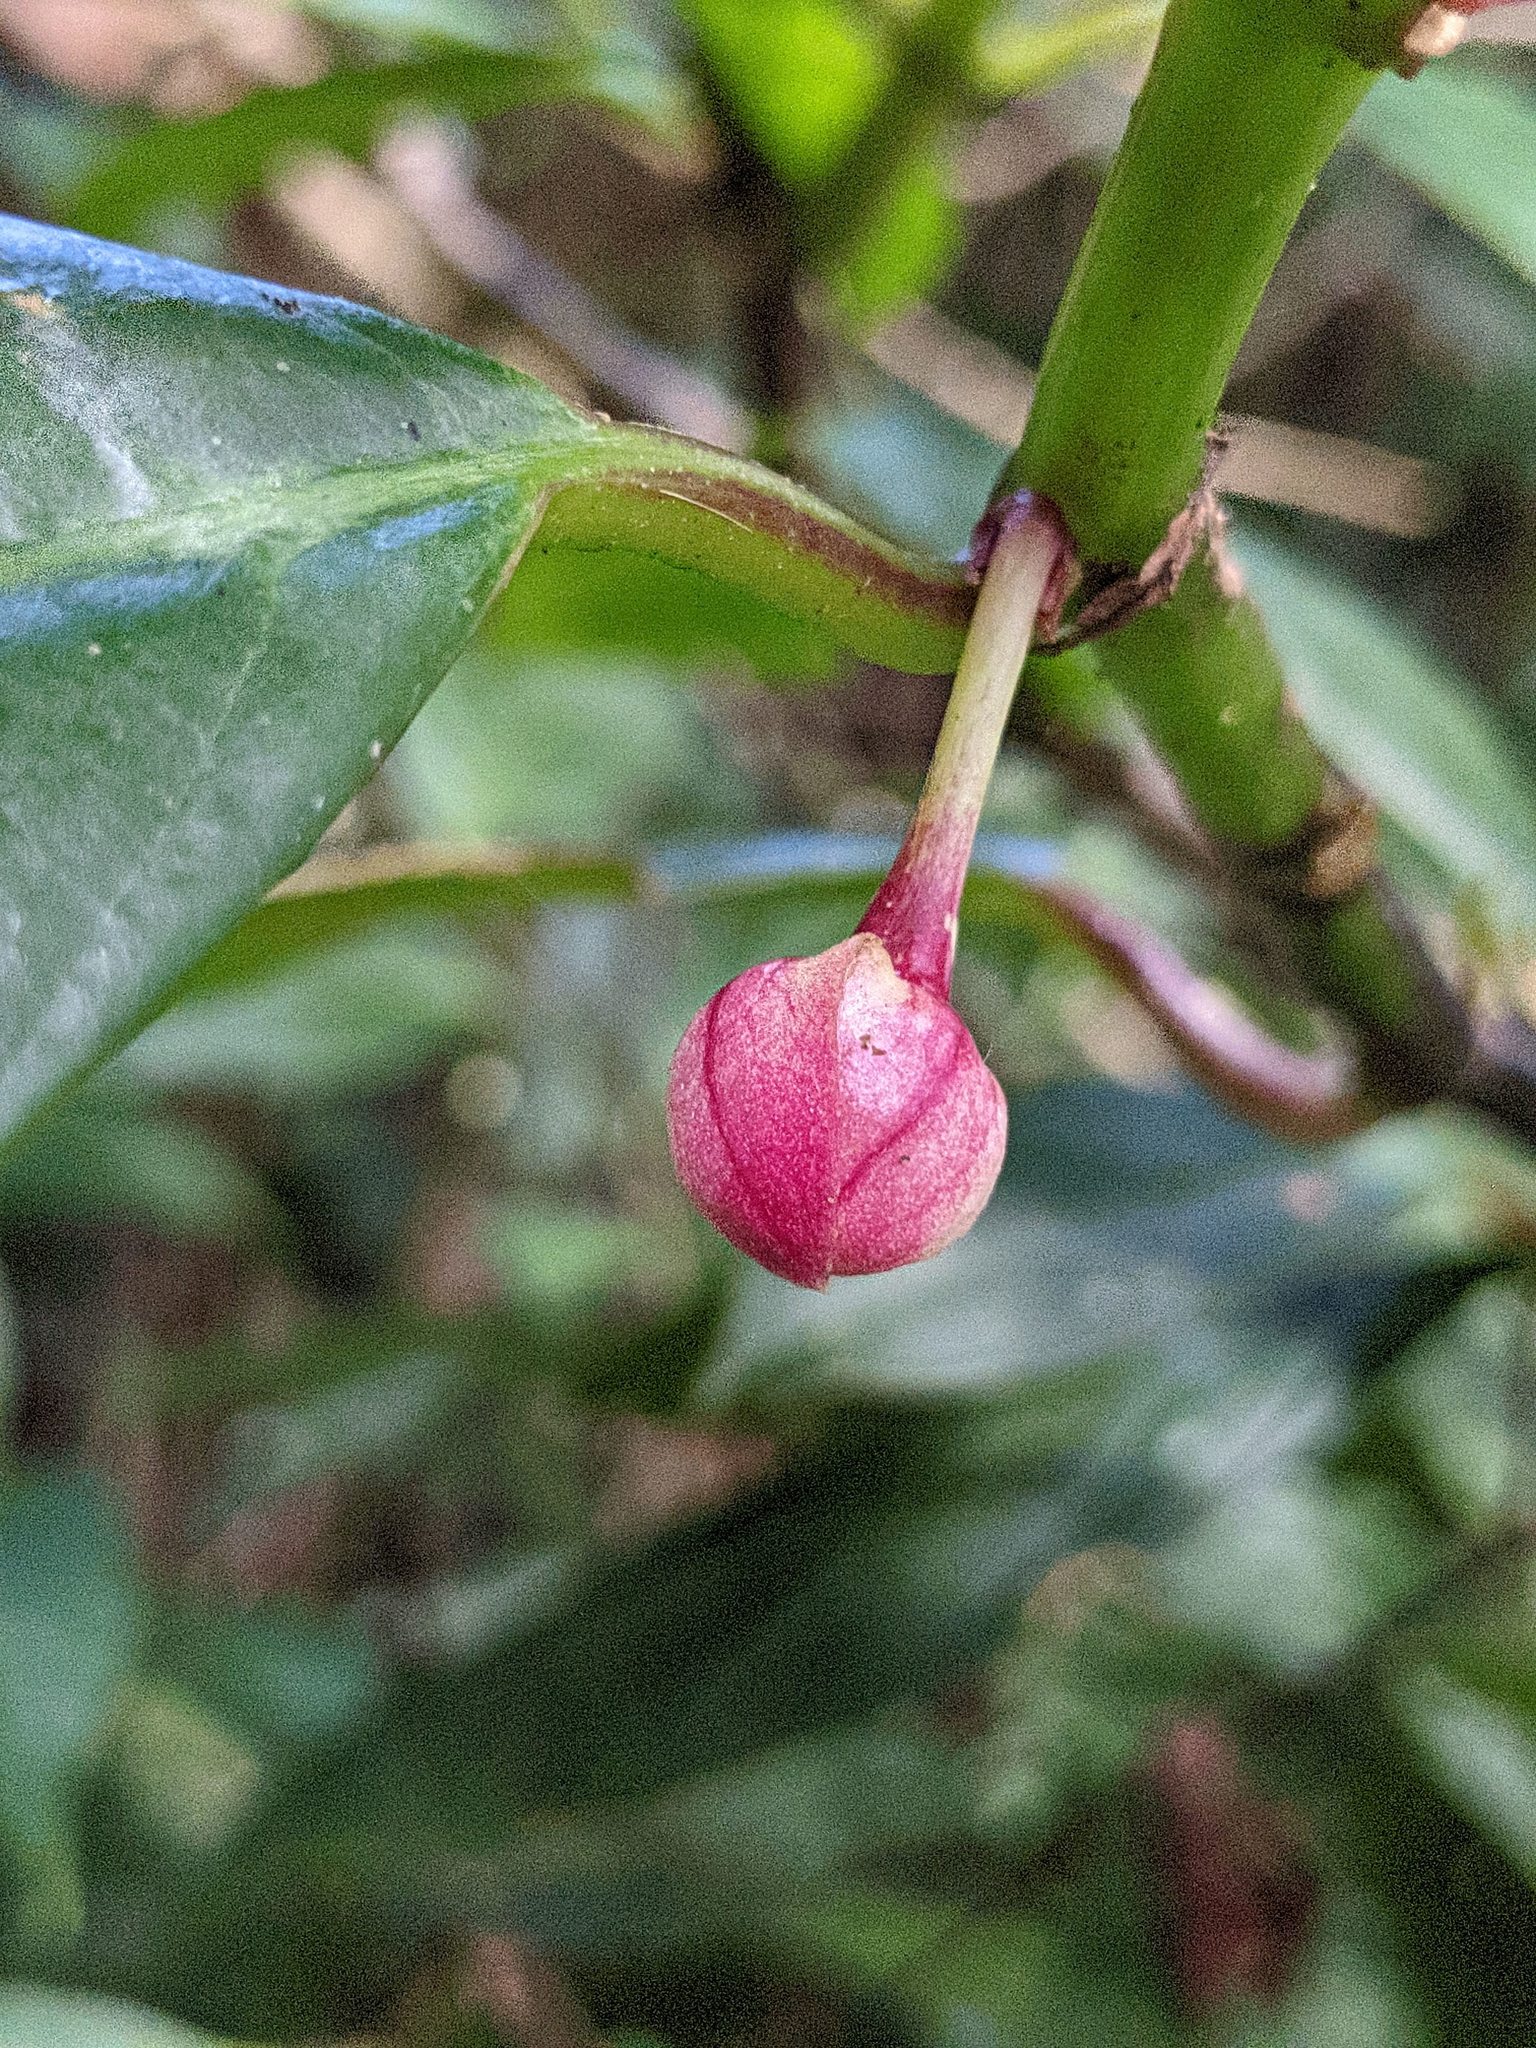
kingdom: Plantae
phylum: Tracheophyta
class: Magnoliopsida
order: Lamiales
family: Gesneriaceae
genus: Drymonia
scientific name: Drymonia conchocalyx
